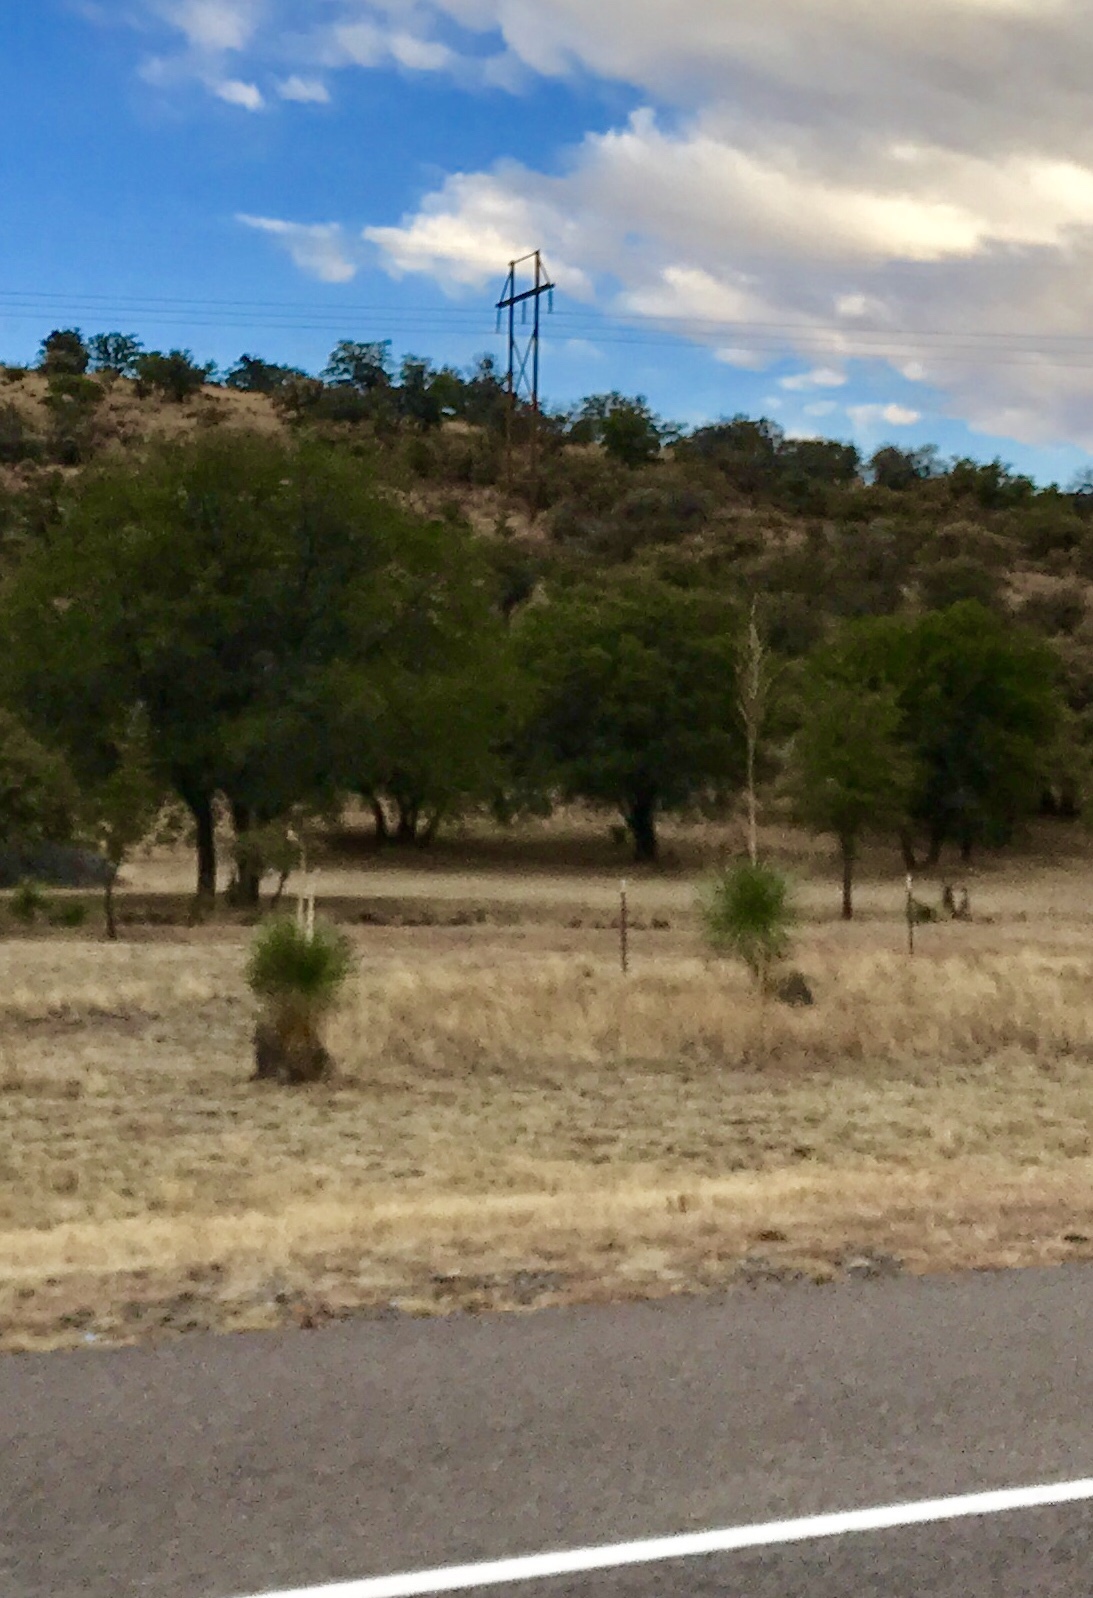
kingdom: Plantae
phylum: Tracheophyta
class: Liliopsida
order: Asparagales
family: Asparagaceae
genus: Yucca
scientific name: Yucca elata
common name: Palmella
